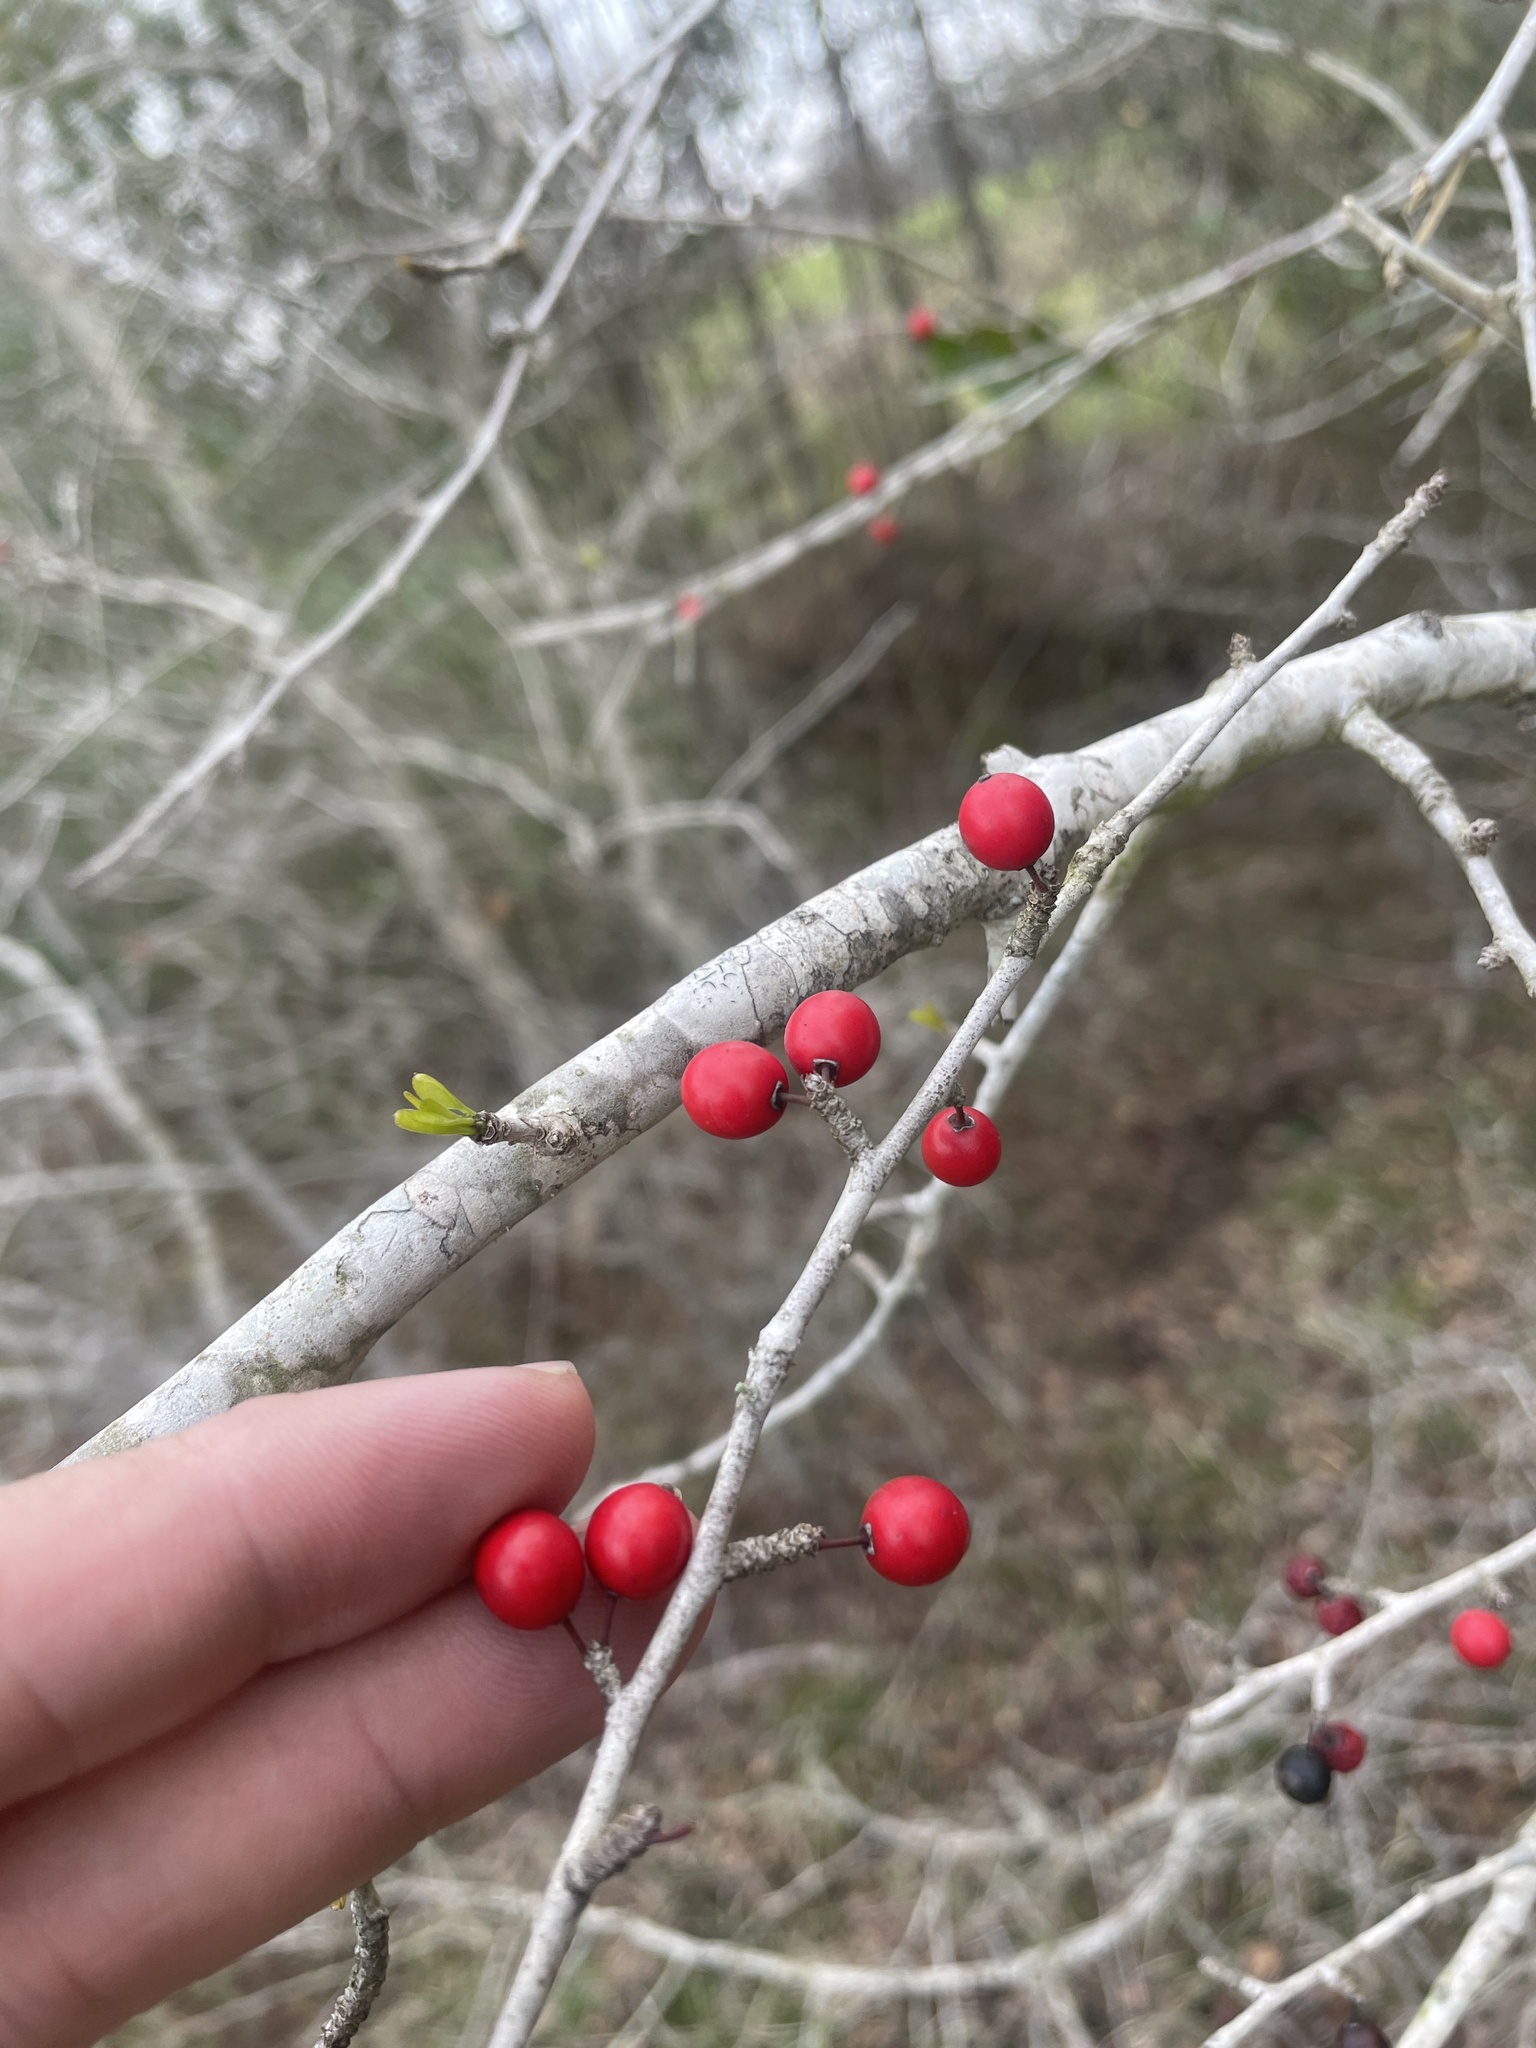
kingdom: Plantae
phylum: Tracheophyta
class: Magnoliopsida
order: Aquifoliales
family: Aquifoliaceae
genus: Ilex
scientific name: Ilex decidua
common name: Possum-haw
